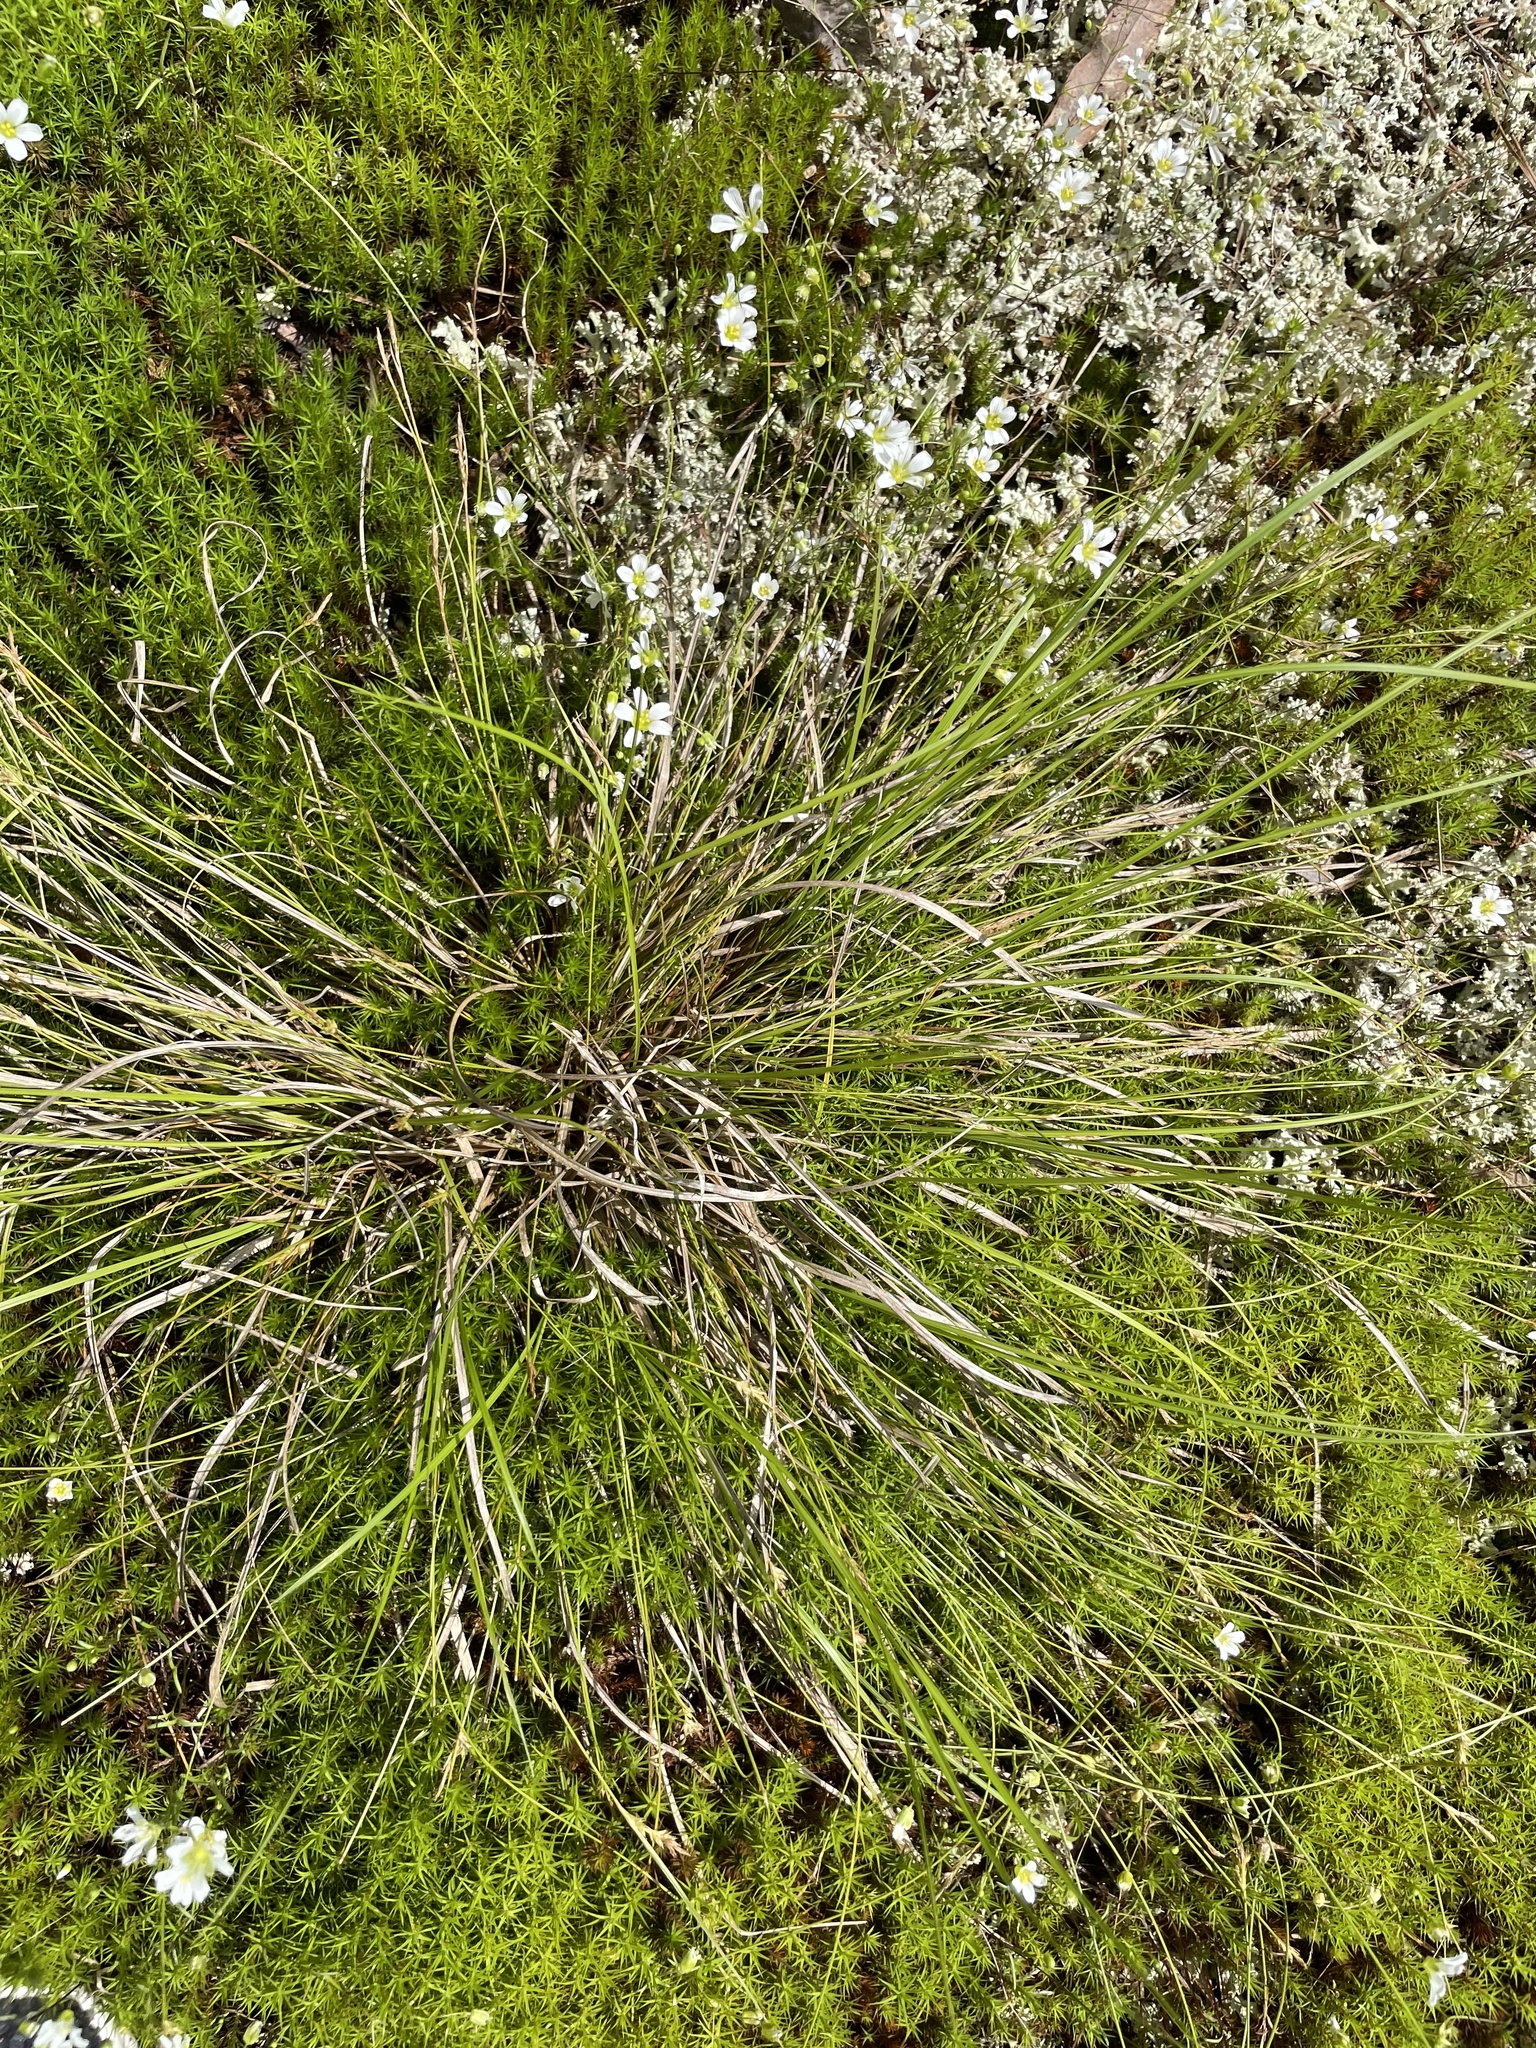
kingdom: Plantae
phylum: Tracheophyta
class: Liliopsida
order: Poales
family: Cyperaceae
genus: Carex
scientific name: Carex albicans
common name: Bellow-beaked sedge
